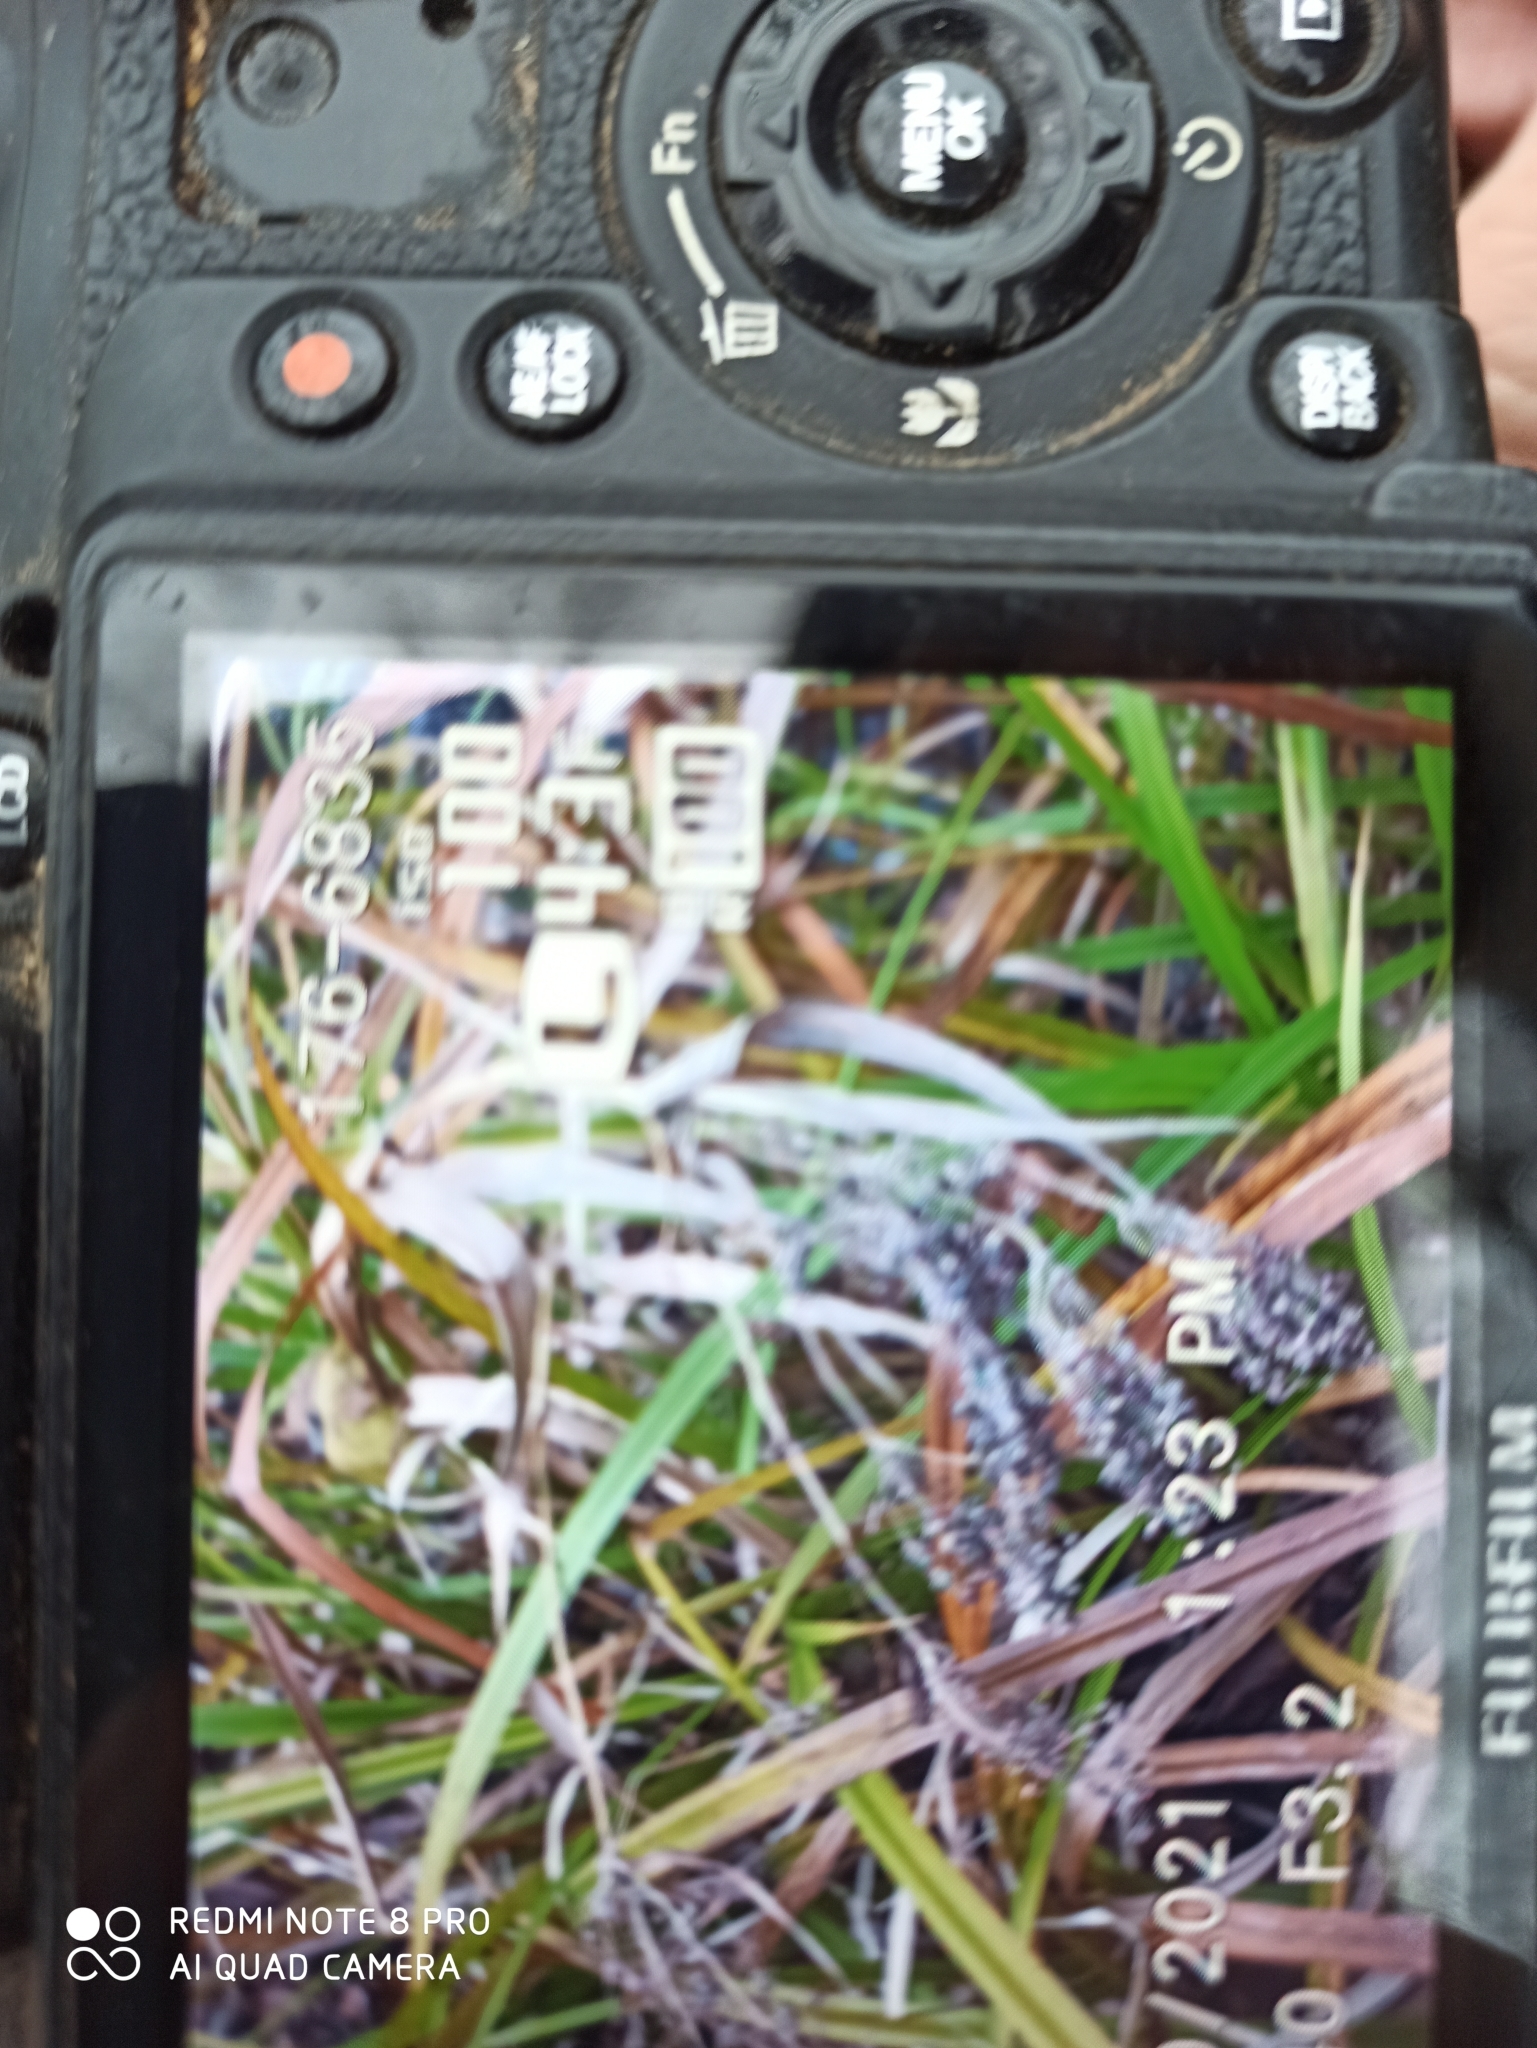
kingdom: Plantae
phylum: Tracheophyta
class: Liliopsida
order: Poales
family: Cyperaceae
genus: Scirpus
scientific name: Scirpus sylvaticus
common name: Wood club-rush
